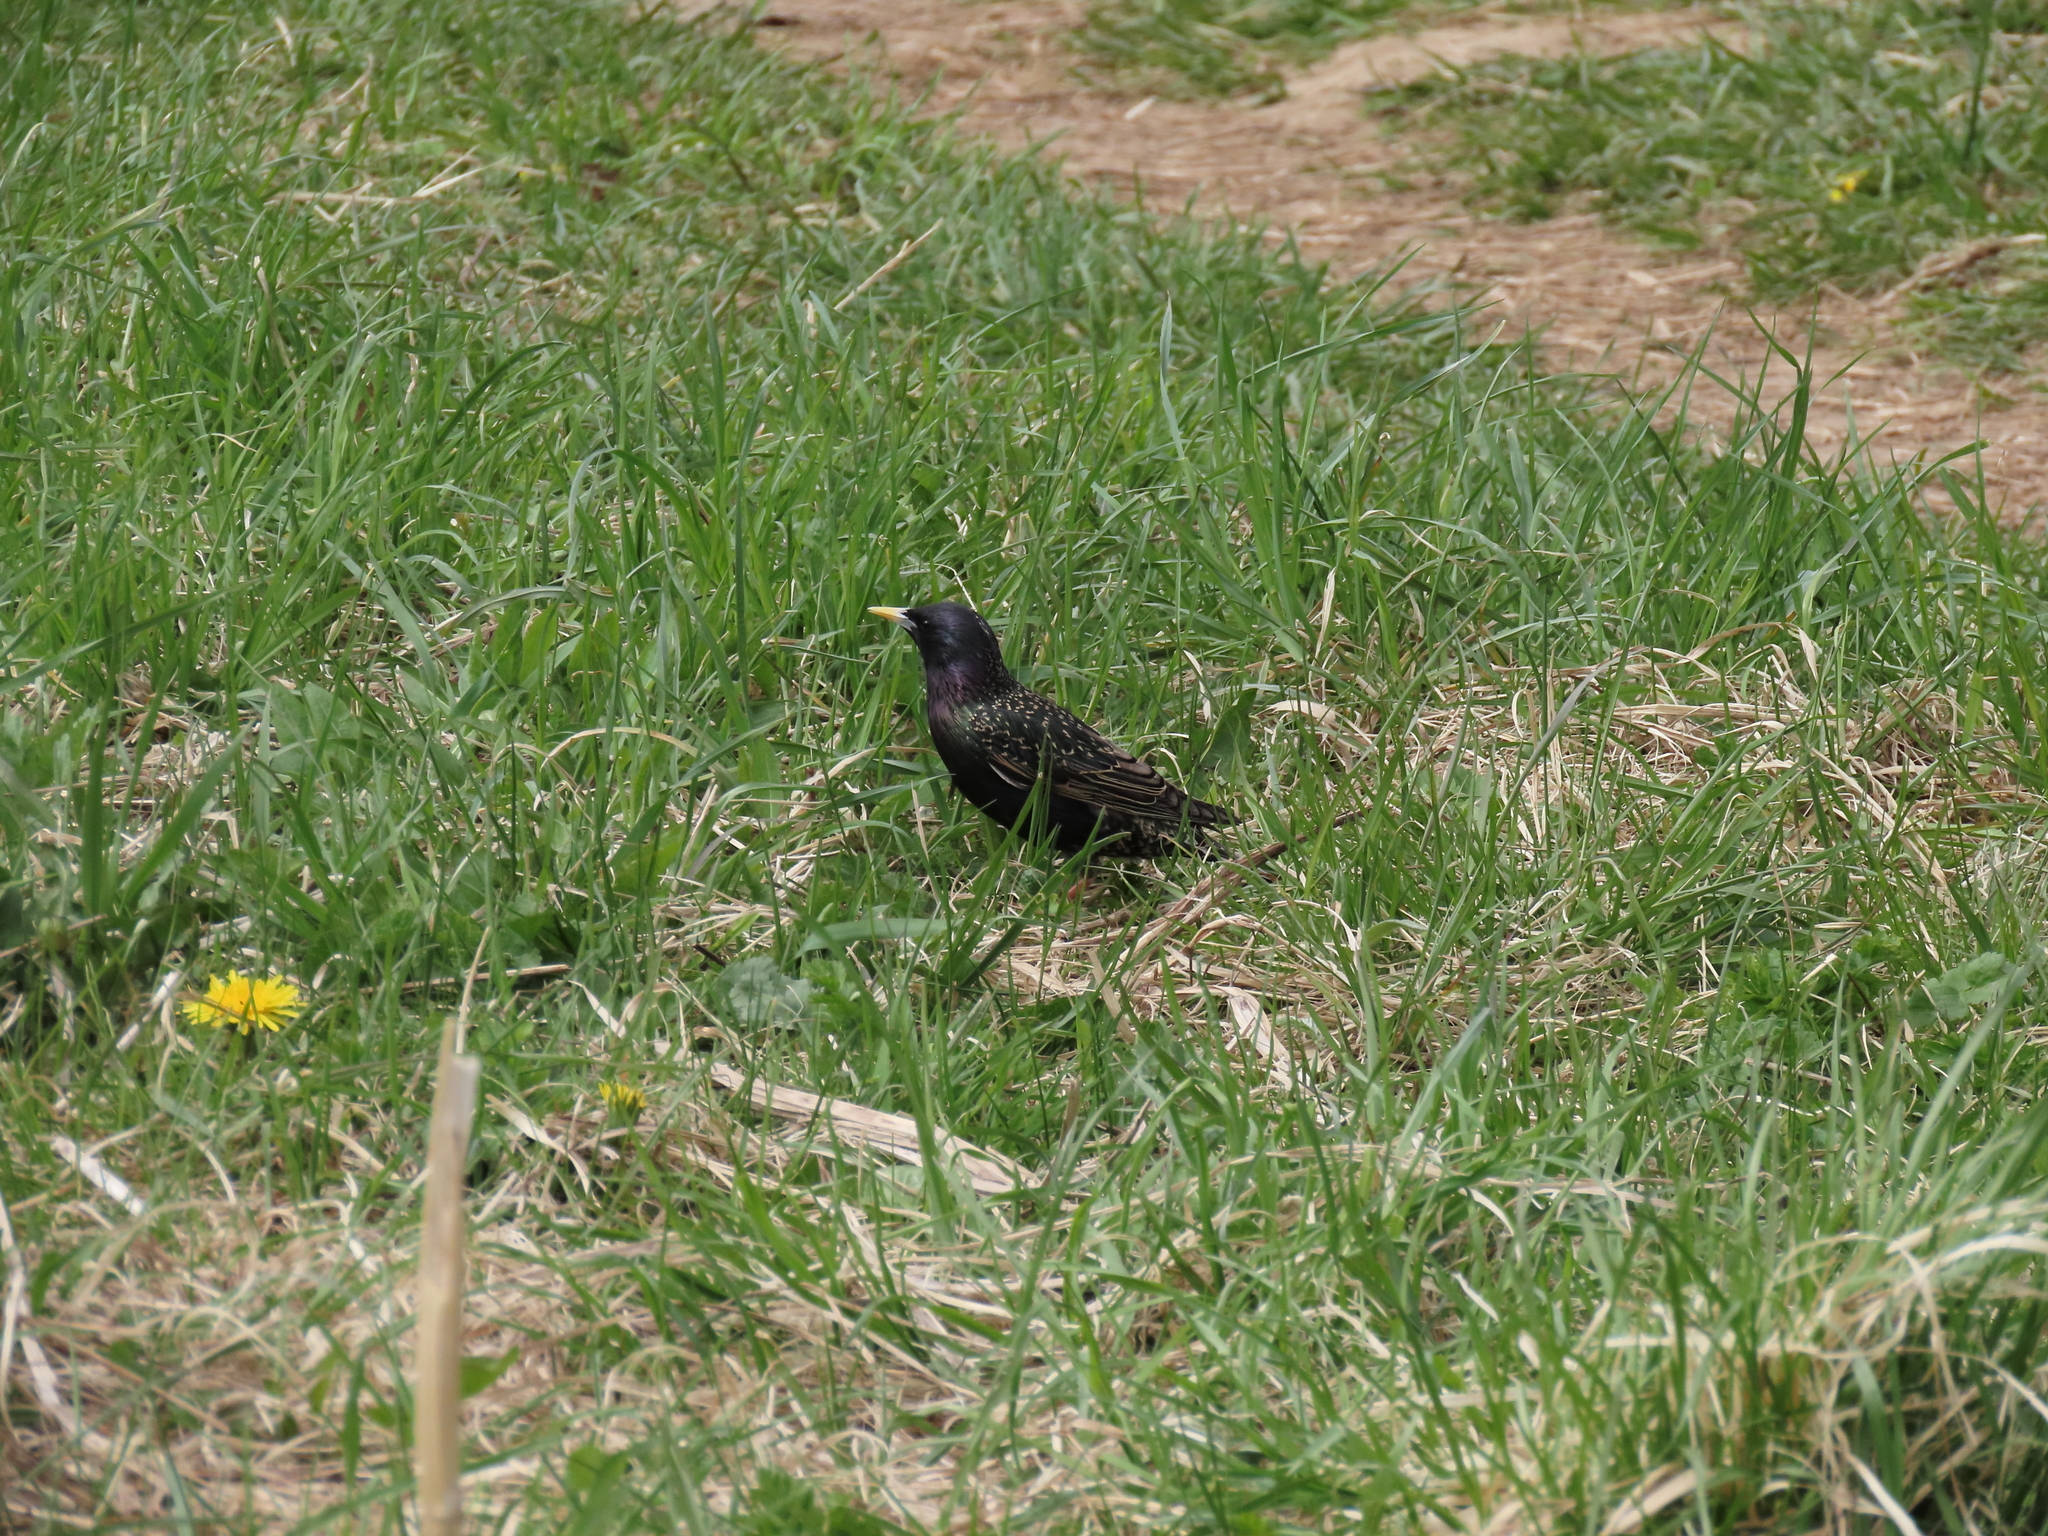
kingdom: Animalia
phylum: Chordata
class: Aves
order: Passeriformes
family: Sturnidae
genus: Sturnus
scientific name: Sturnus vulgaris
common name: Common starling
